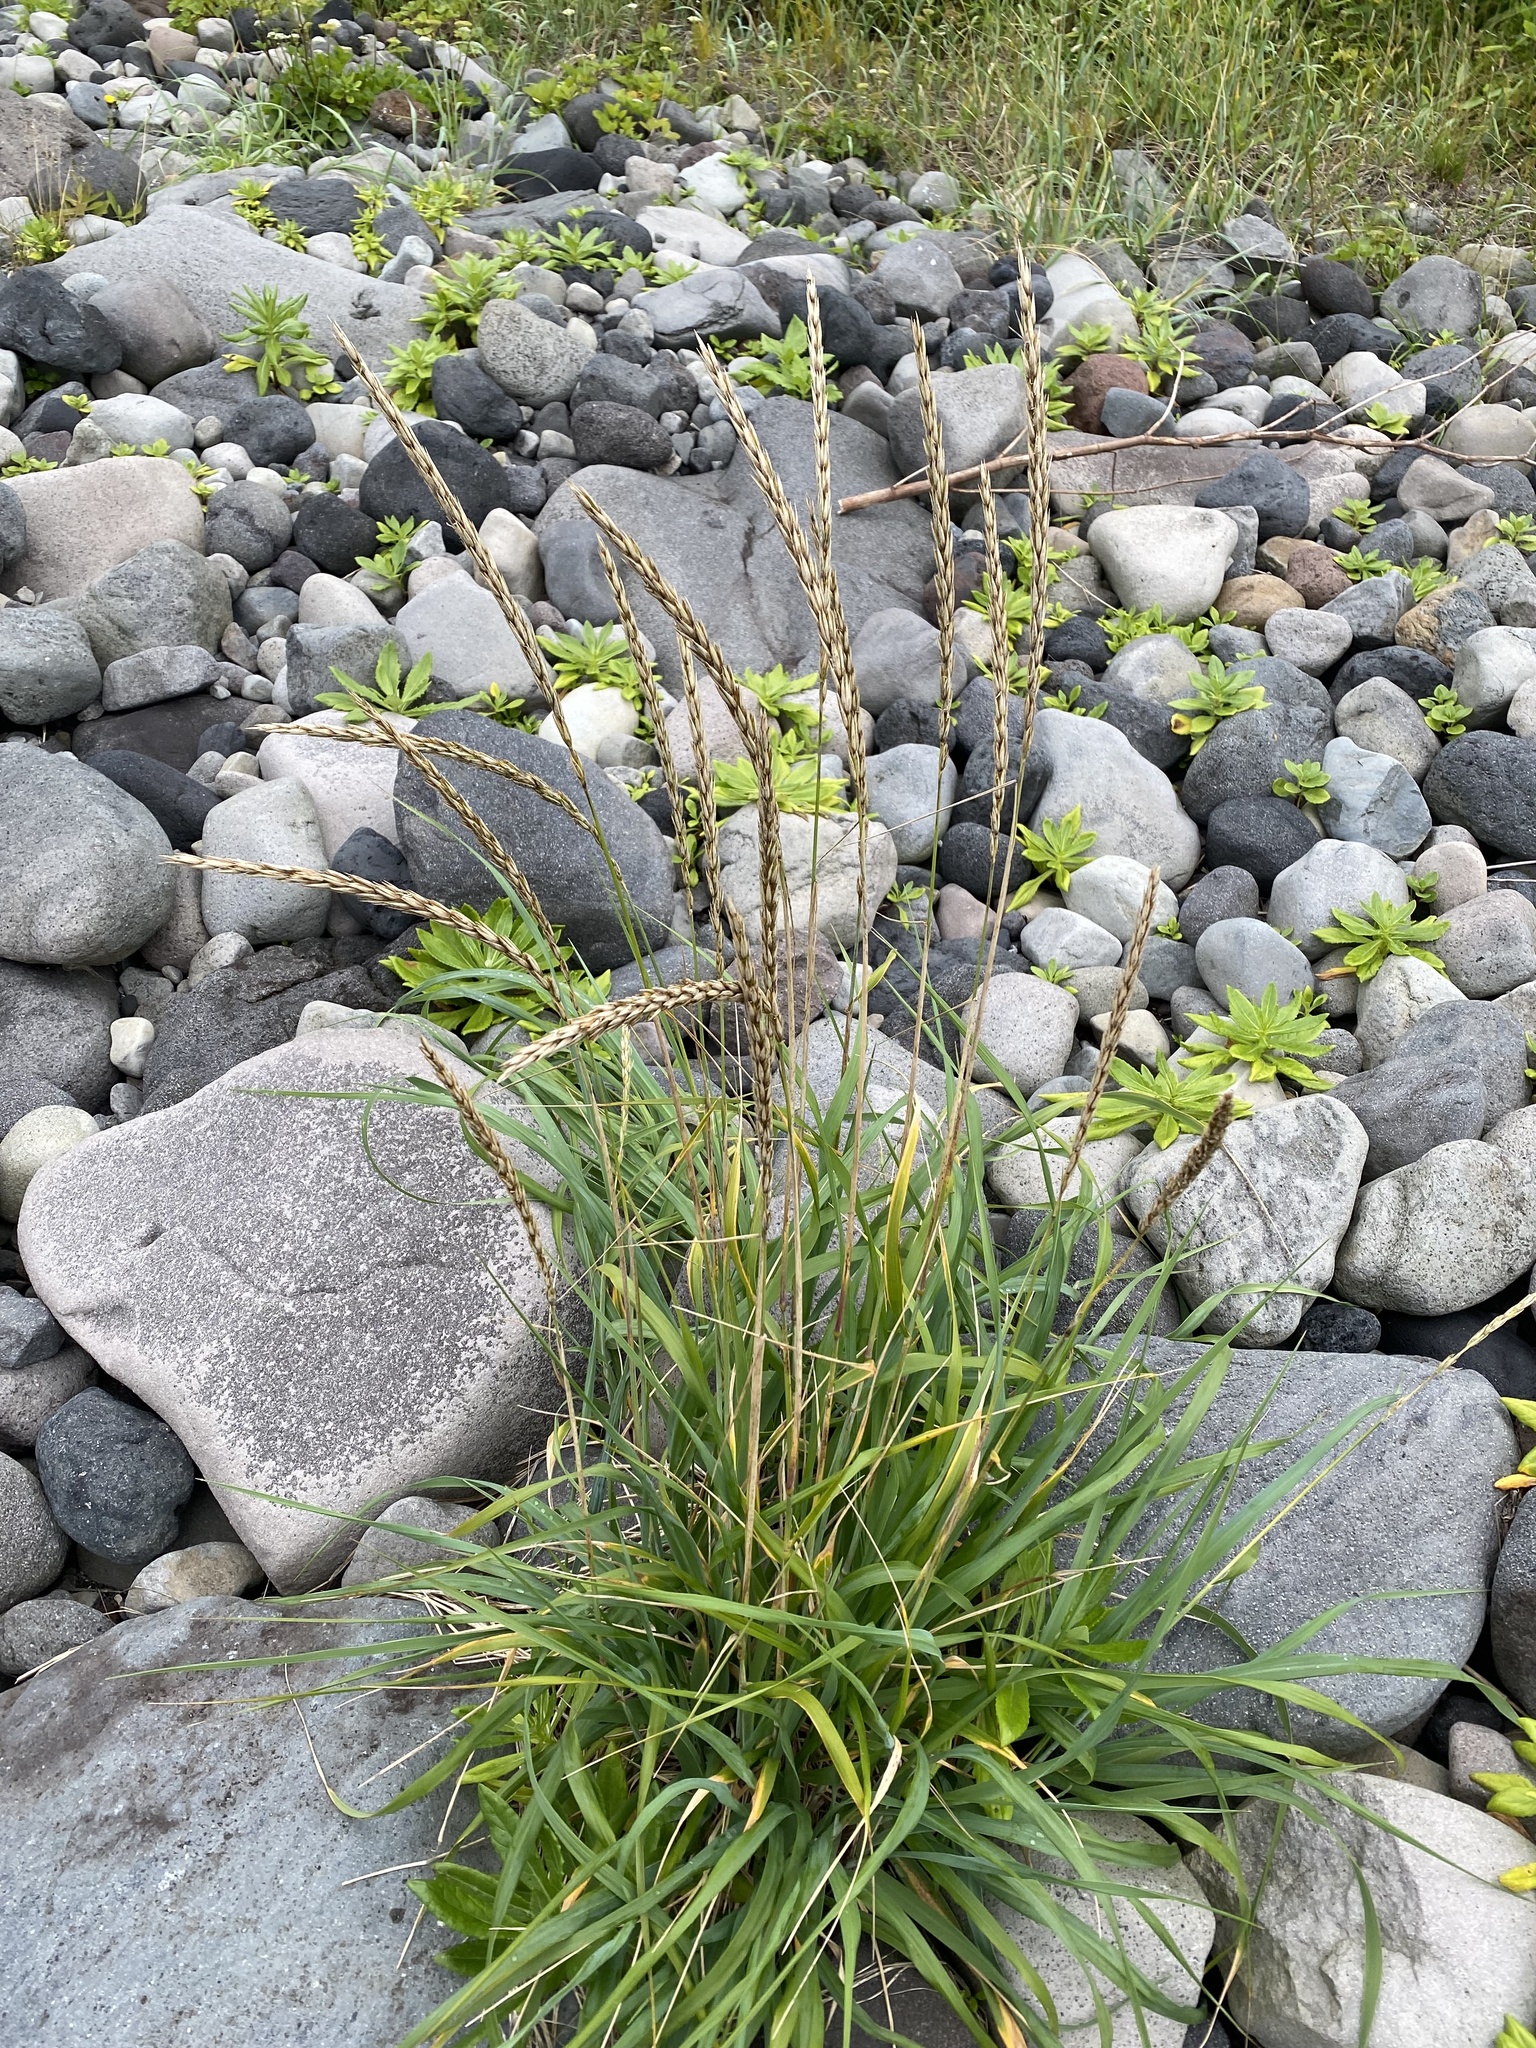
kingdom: Plantae
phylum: Tracheophyta
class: Liliopsida
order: Poales
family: Poaceae
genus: Leymus
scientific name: Leymus mollis
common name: American dune grass
